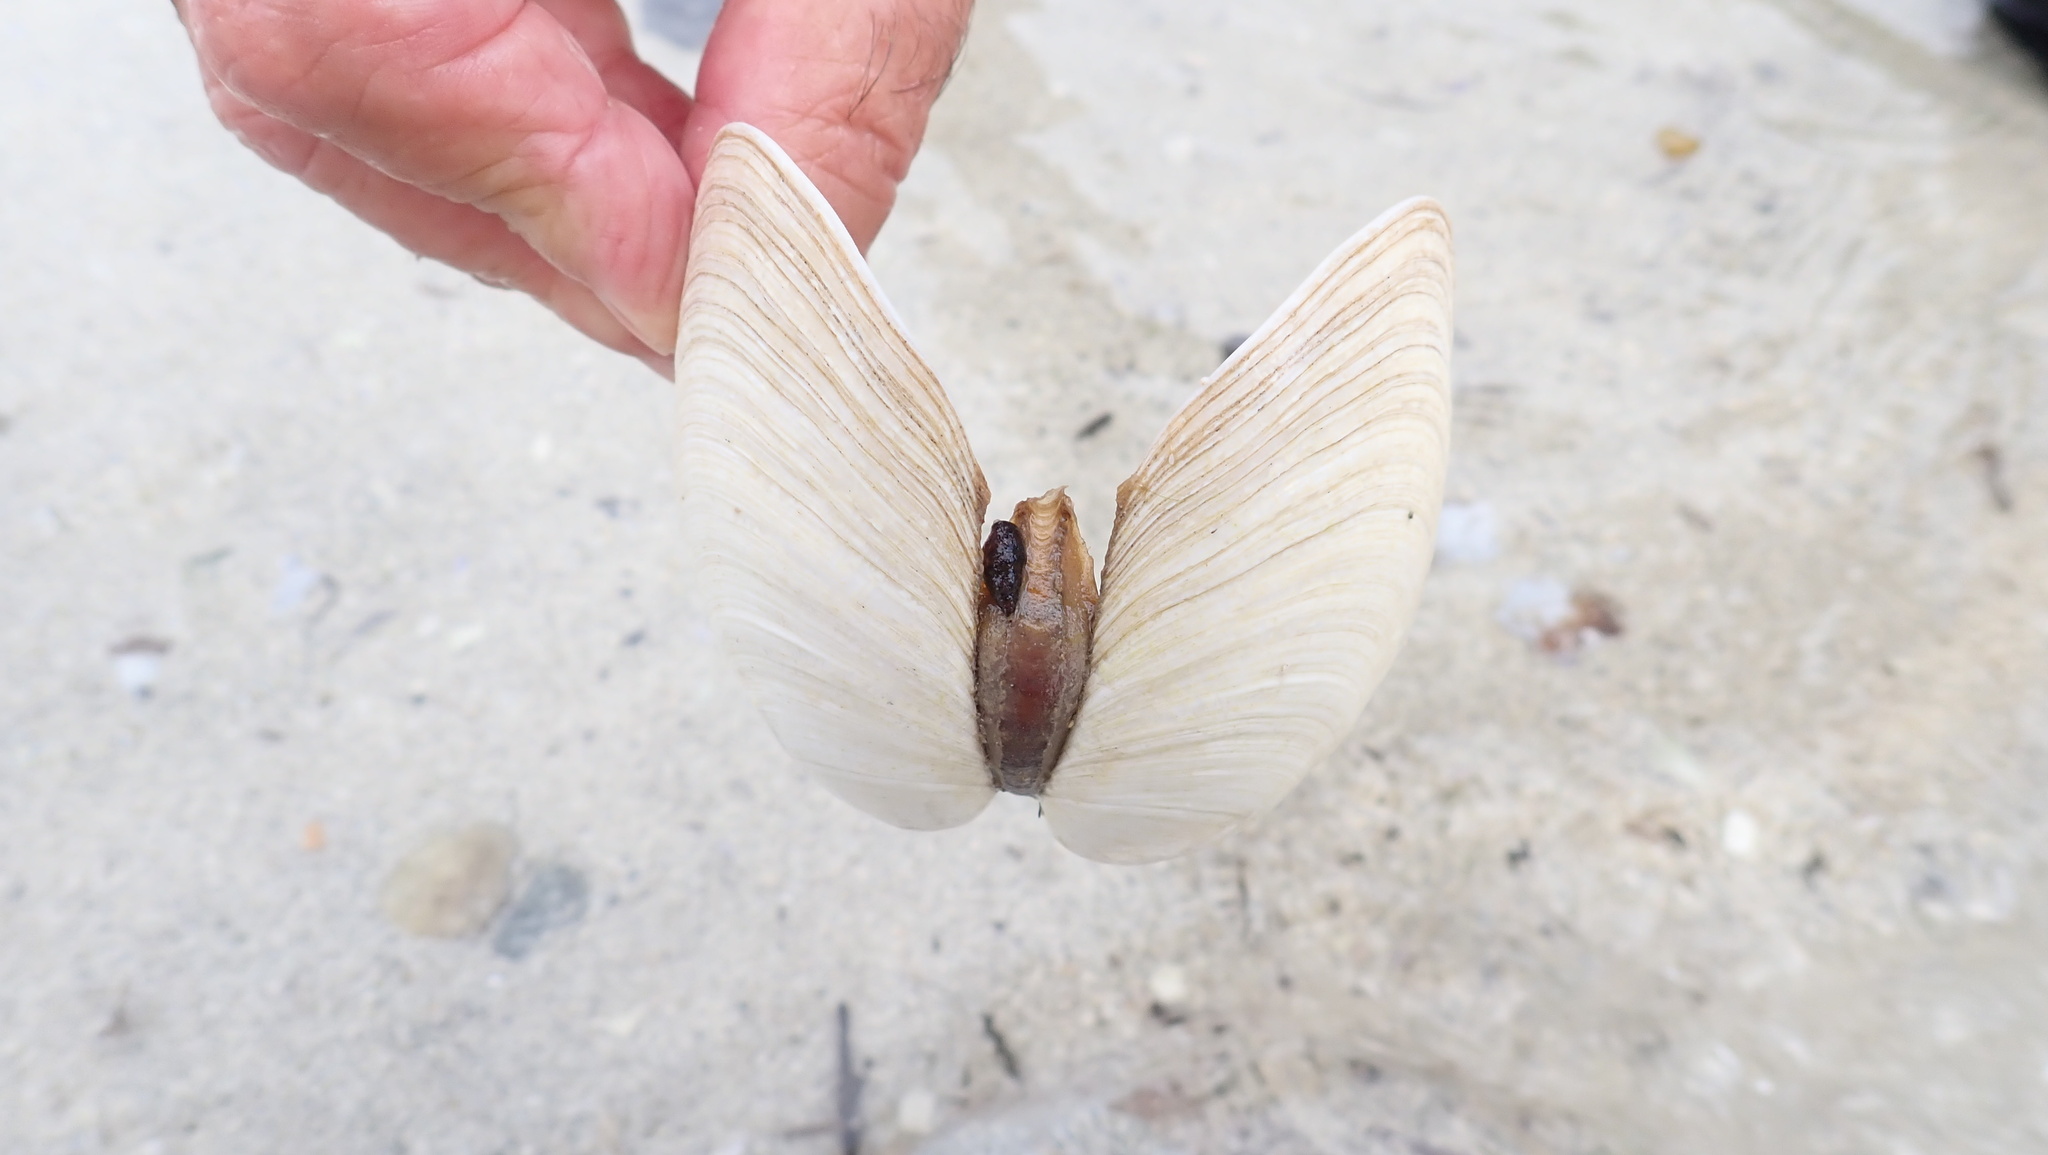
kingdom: Animalia
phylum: Mollusca
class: Bivalvia
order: Venerida
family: Veneridae
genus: Saxidomus
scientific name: Saxidomus gigantea
